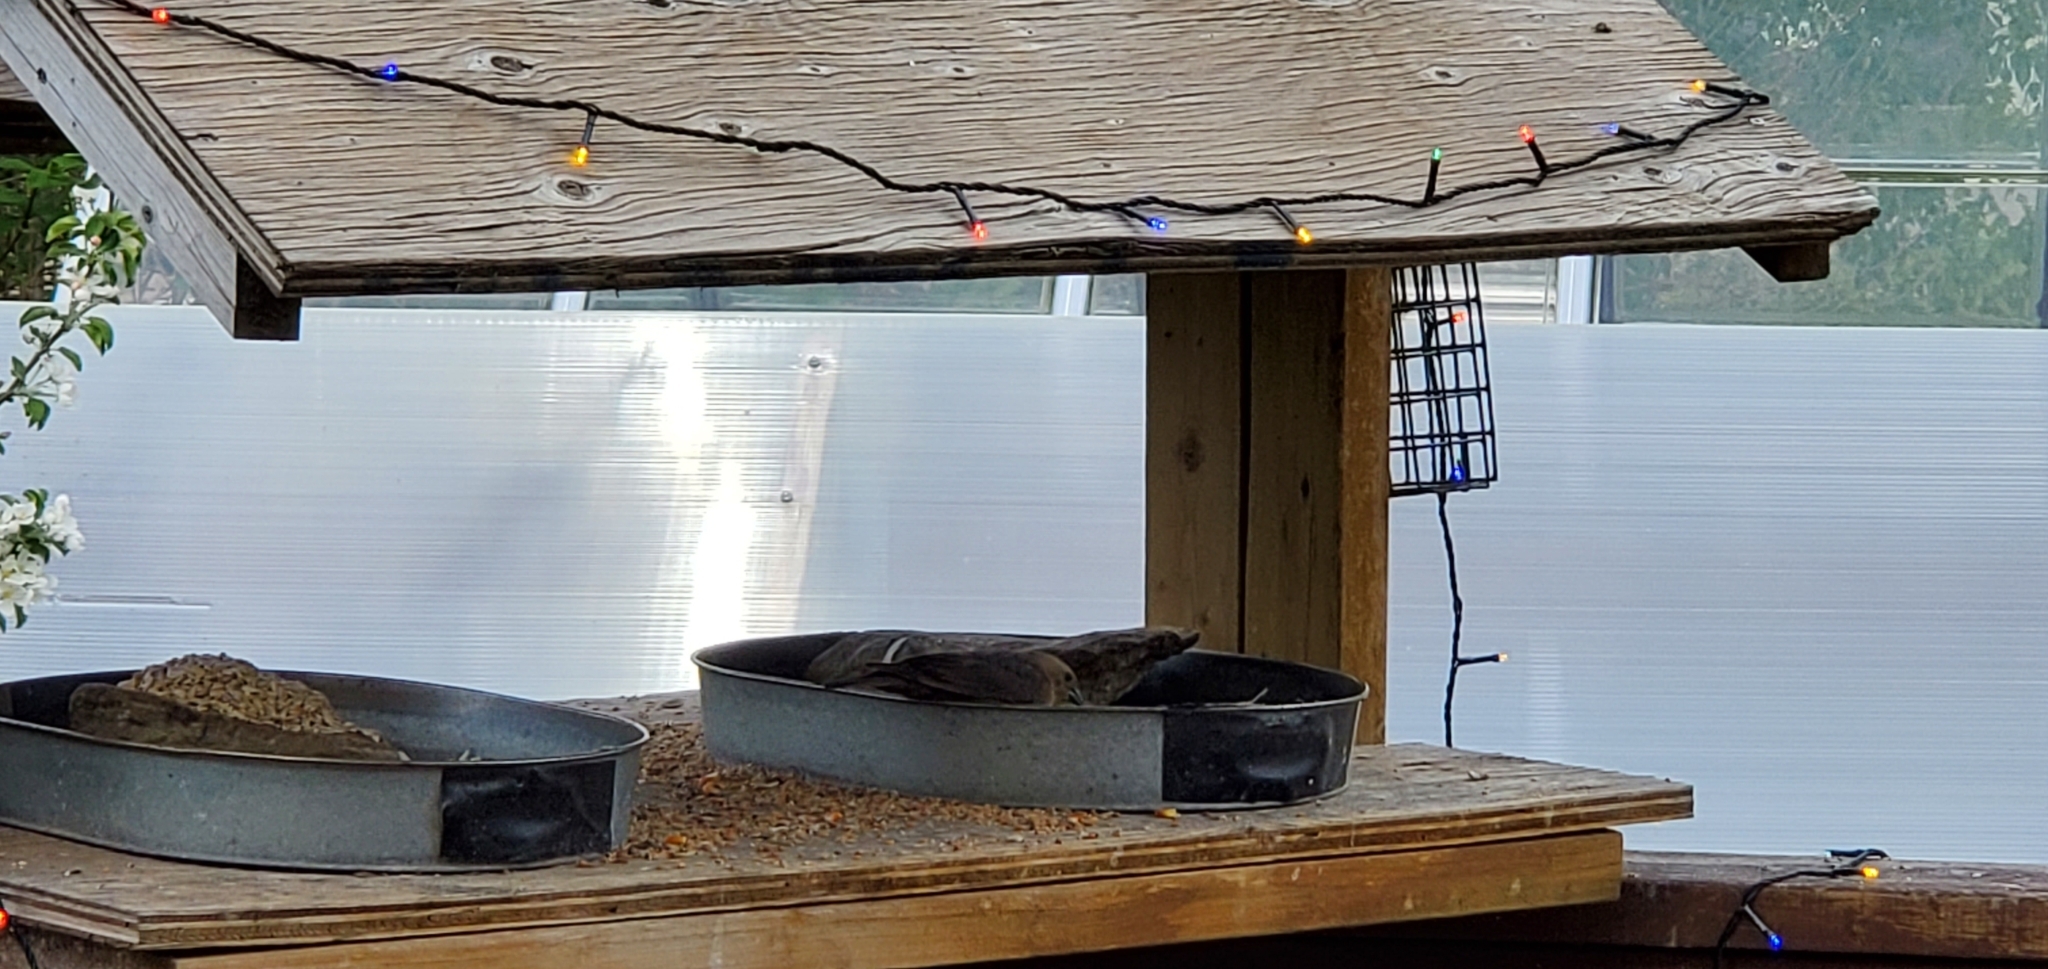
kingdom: Animalia
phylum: Chordata
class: Aves
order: Passeriformes
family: Icteridae
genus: Molothrus
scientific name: Molothrus ater
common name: Brown-headed cowbird
